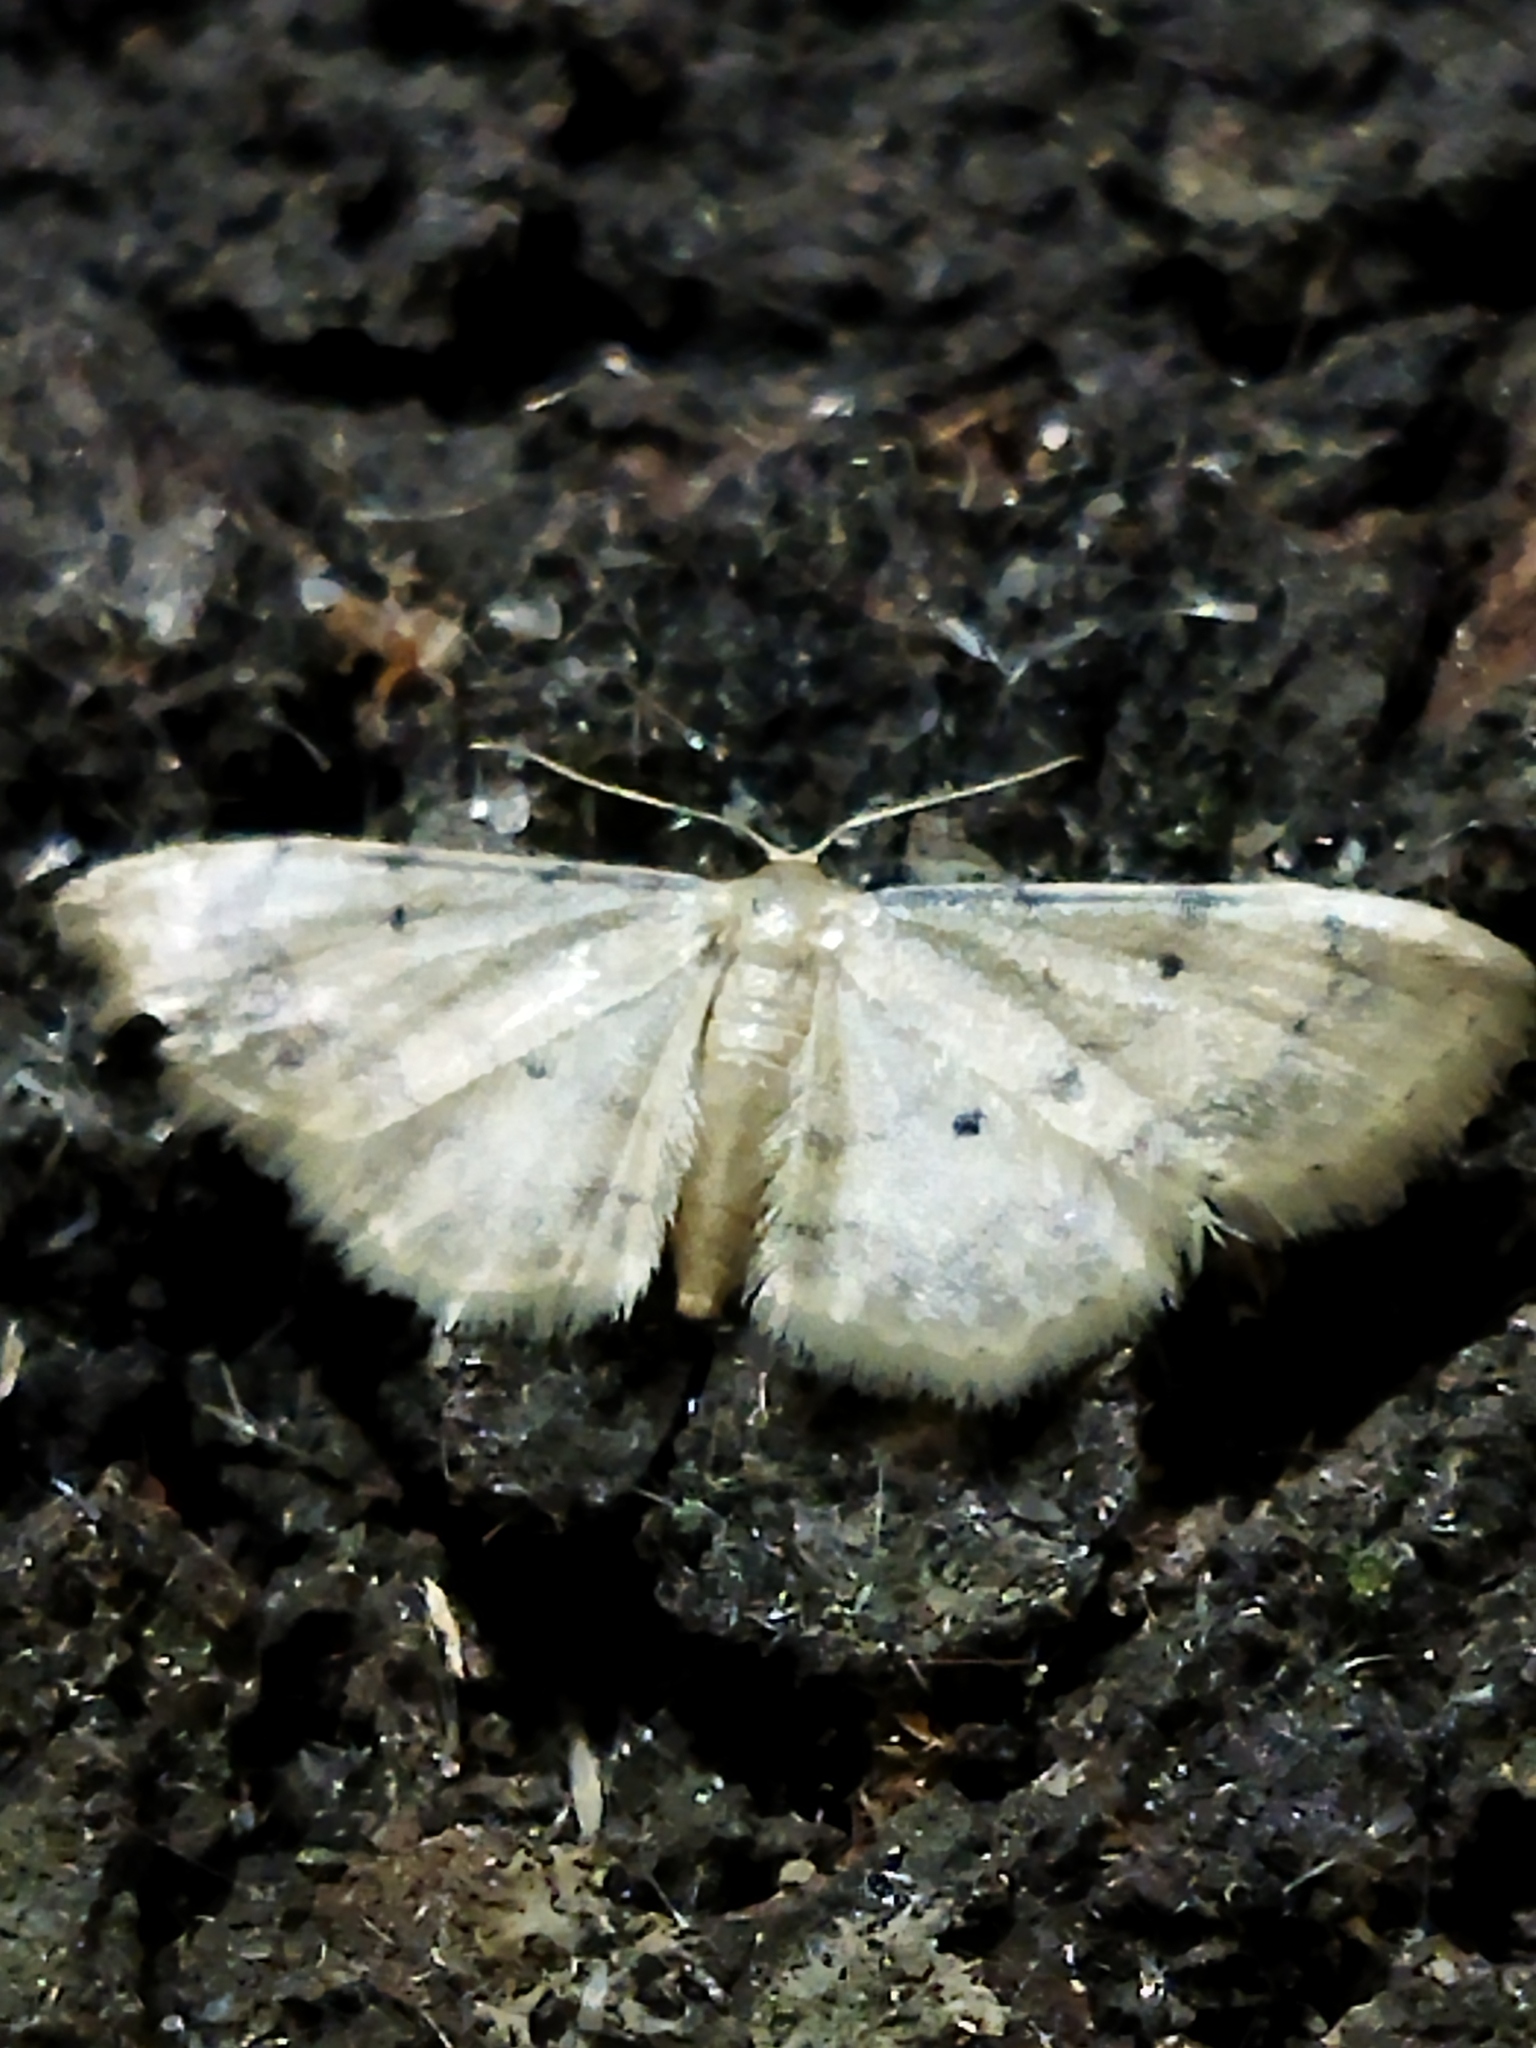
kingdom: Animalia
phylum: Arthropoda
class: Insecta
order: Lepidoptera
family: Geometridae
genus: Idaea
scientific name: Idaea politaria
